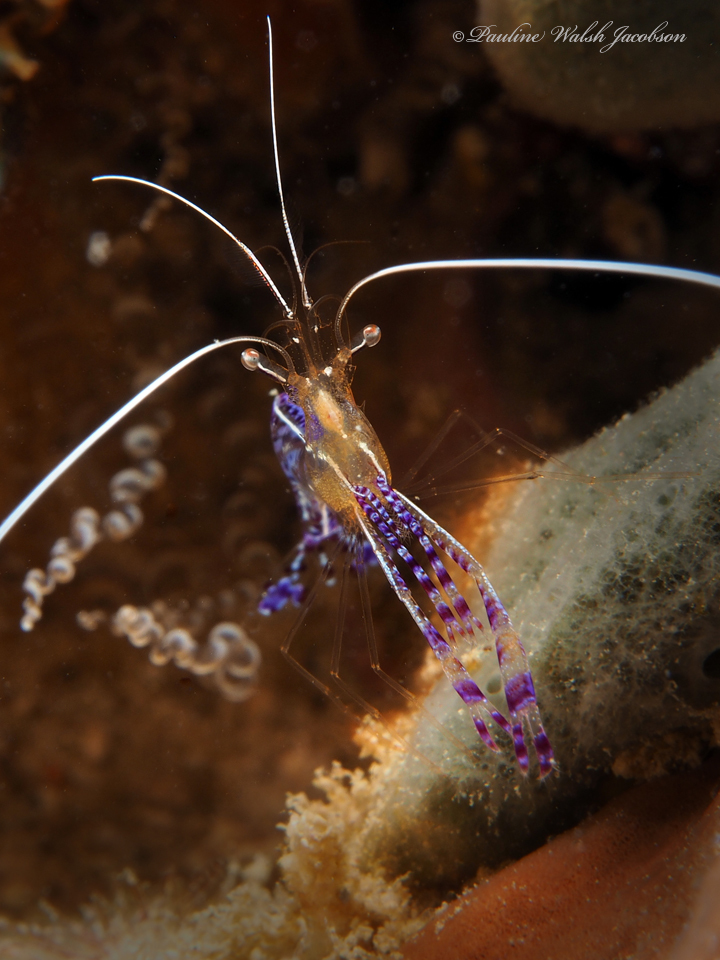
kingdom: Animalia
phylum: Arthropoda
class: Malacostraca
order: Decapoda
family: Palaemonidae
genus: Ancylomenes
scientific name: Ancylomenes pedersoni
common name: Pederson's cleaning shrimp
